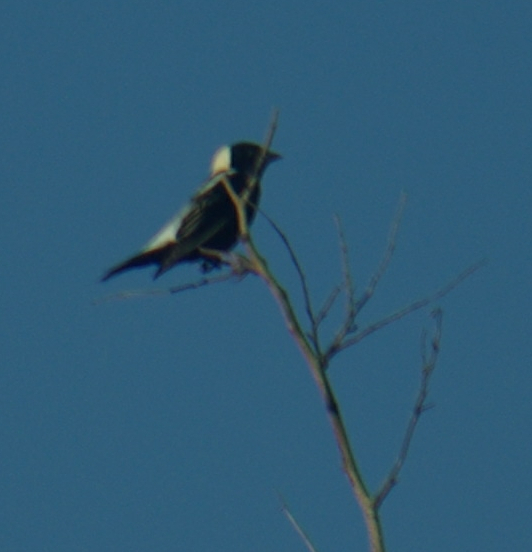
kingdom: Animalia
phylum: Chordata
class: Aves
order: Passeriformes
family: Icteridae
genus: Dolichonyx
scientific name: Dolichonyx oryzivorus
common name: Bobolink
